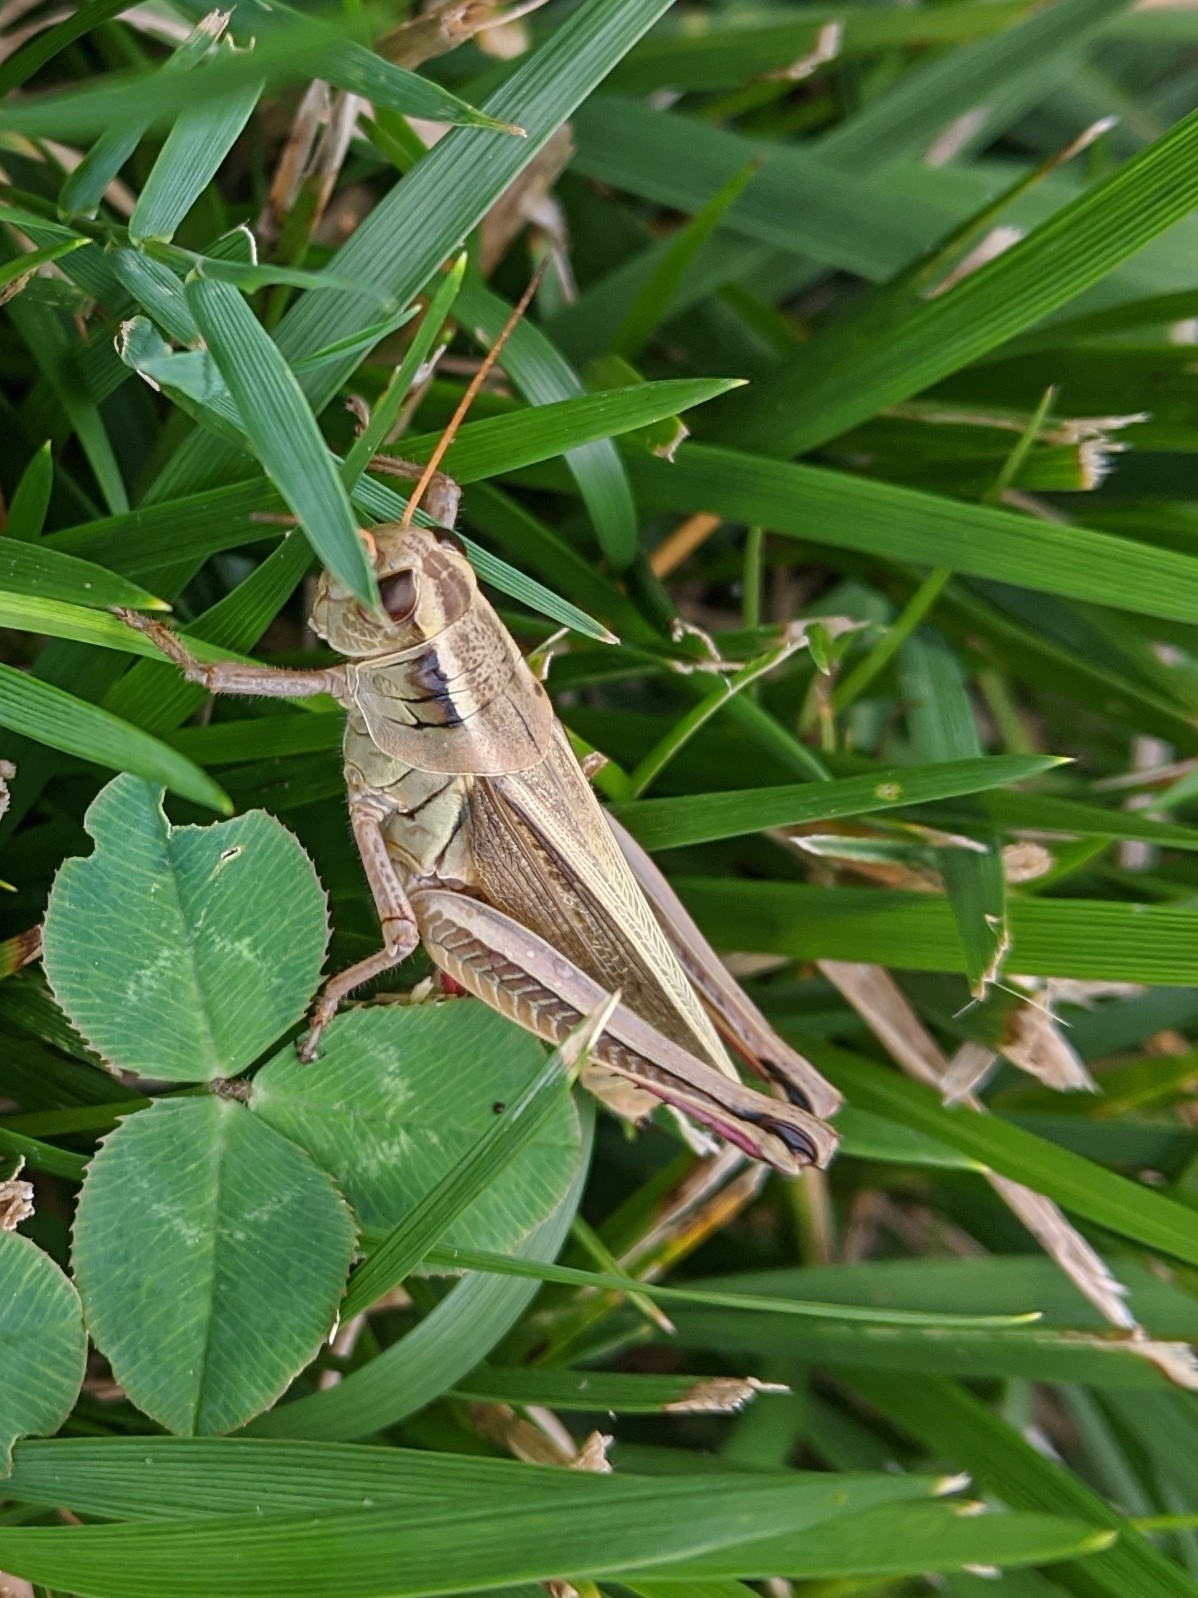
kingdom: Animalia
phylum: Arthropoda
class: Insecta
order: Orthoptera
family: Acrididae
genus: Melanoplus
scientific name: Melanoplus bivittatus
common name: Two-striped grasshopper
